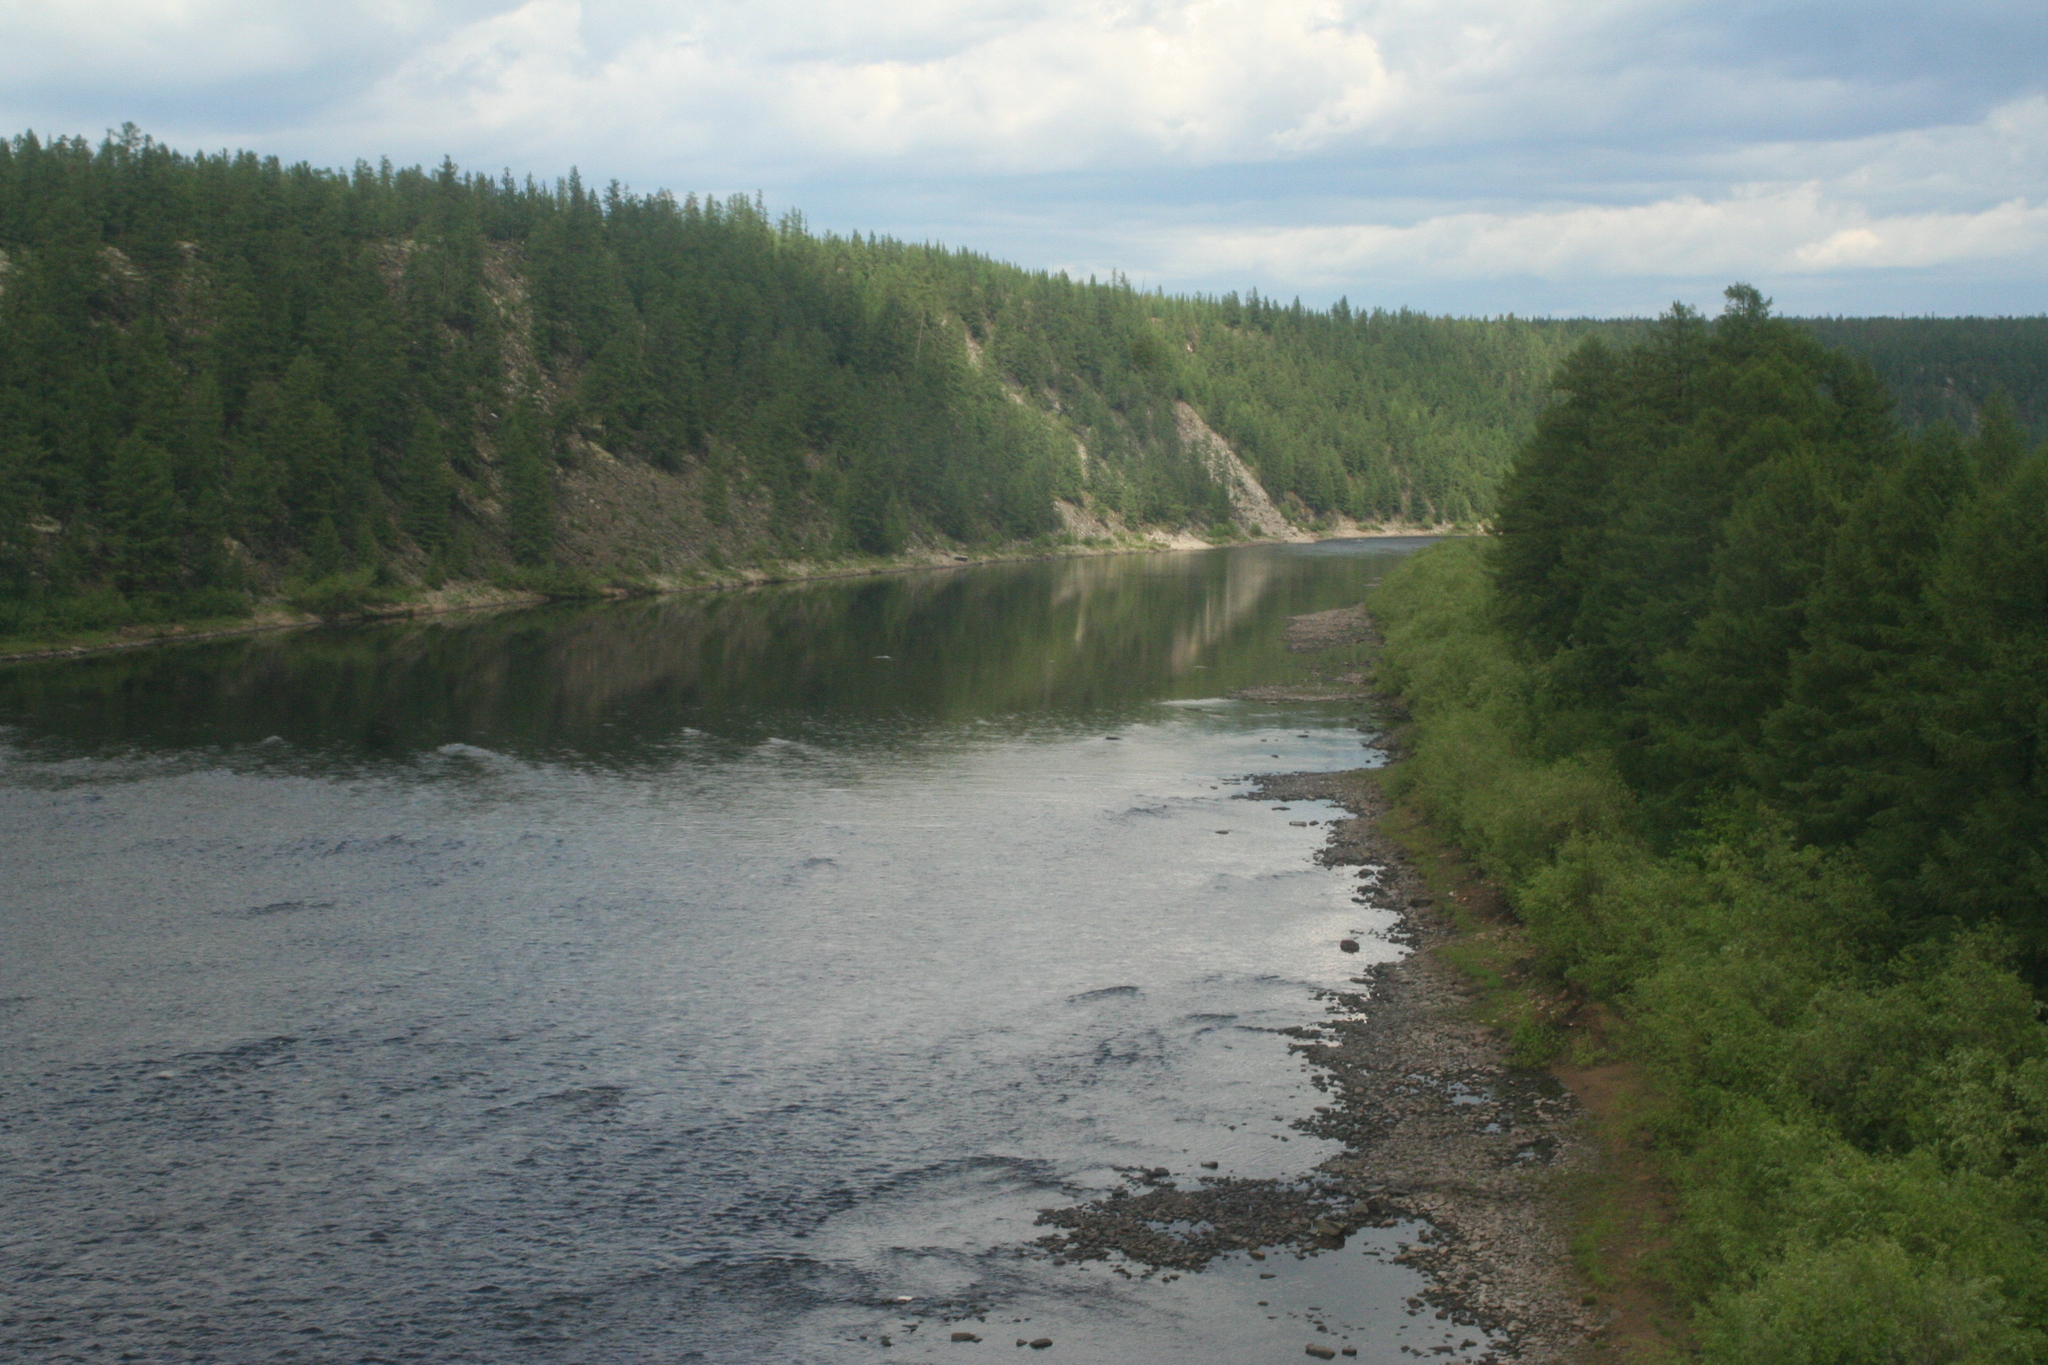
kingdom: Plantae
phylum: Tracheophyta
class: Pinopsida
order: Pinales
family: Pinaceae
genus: Larix
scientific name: Larix gmelinii
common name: Dahurian larch
